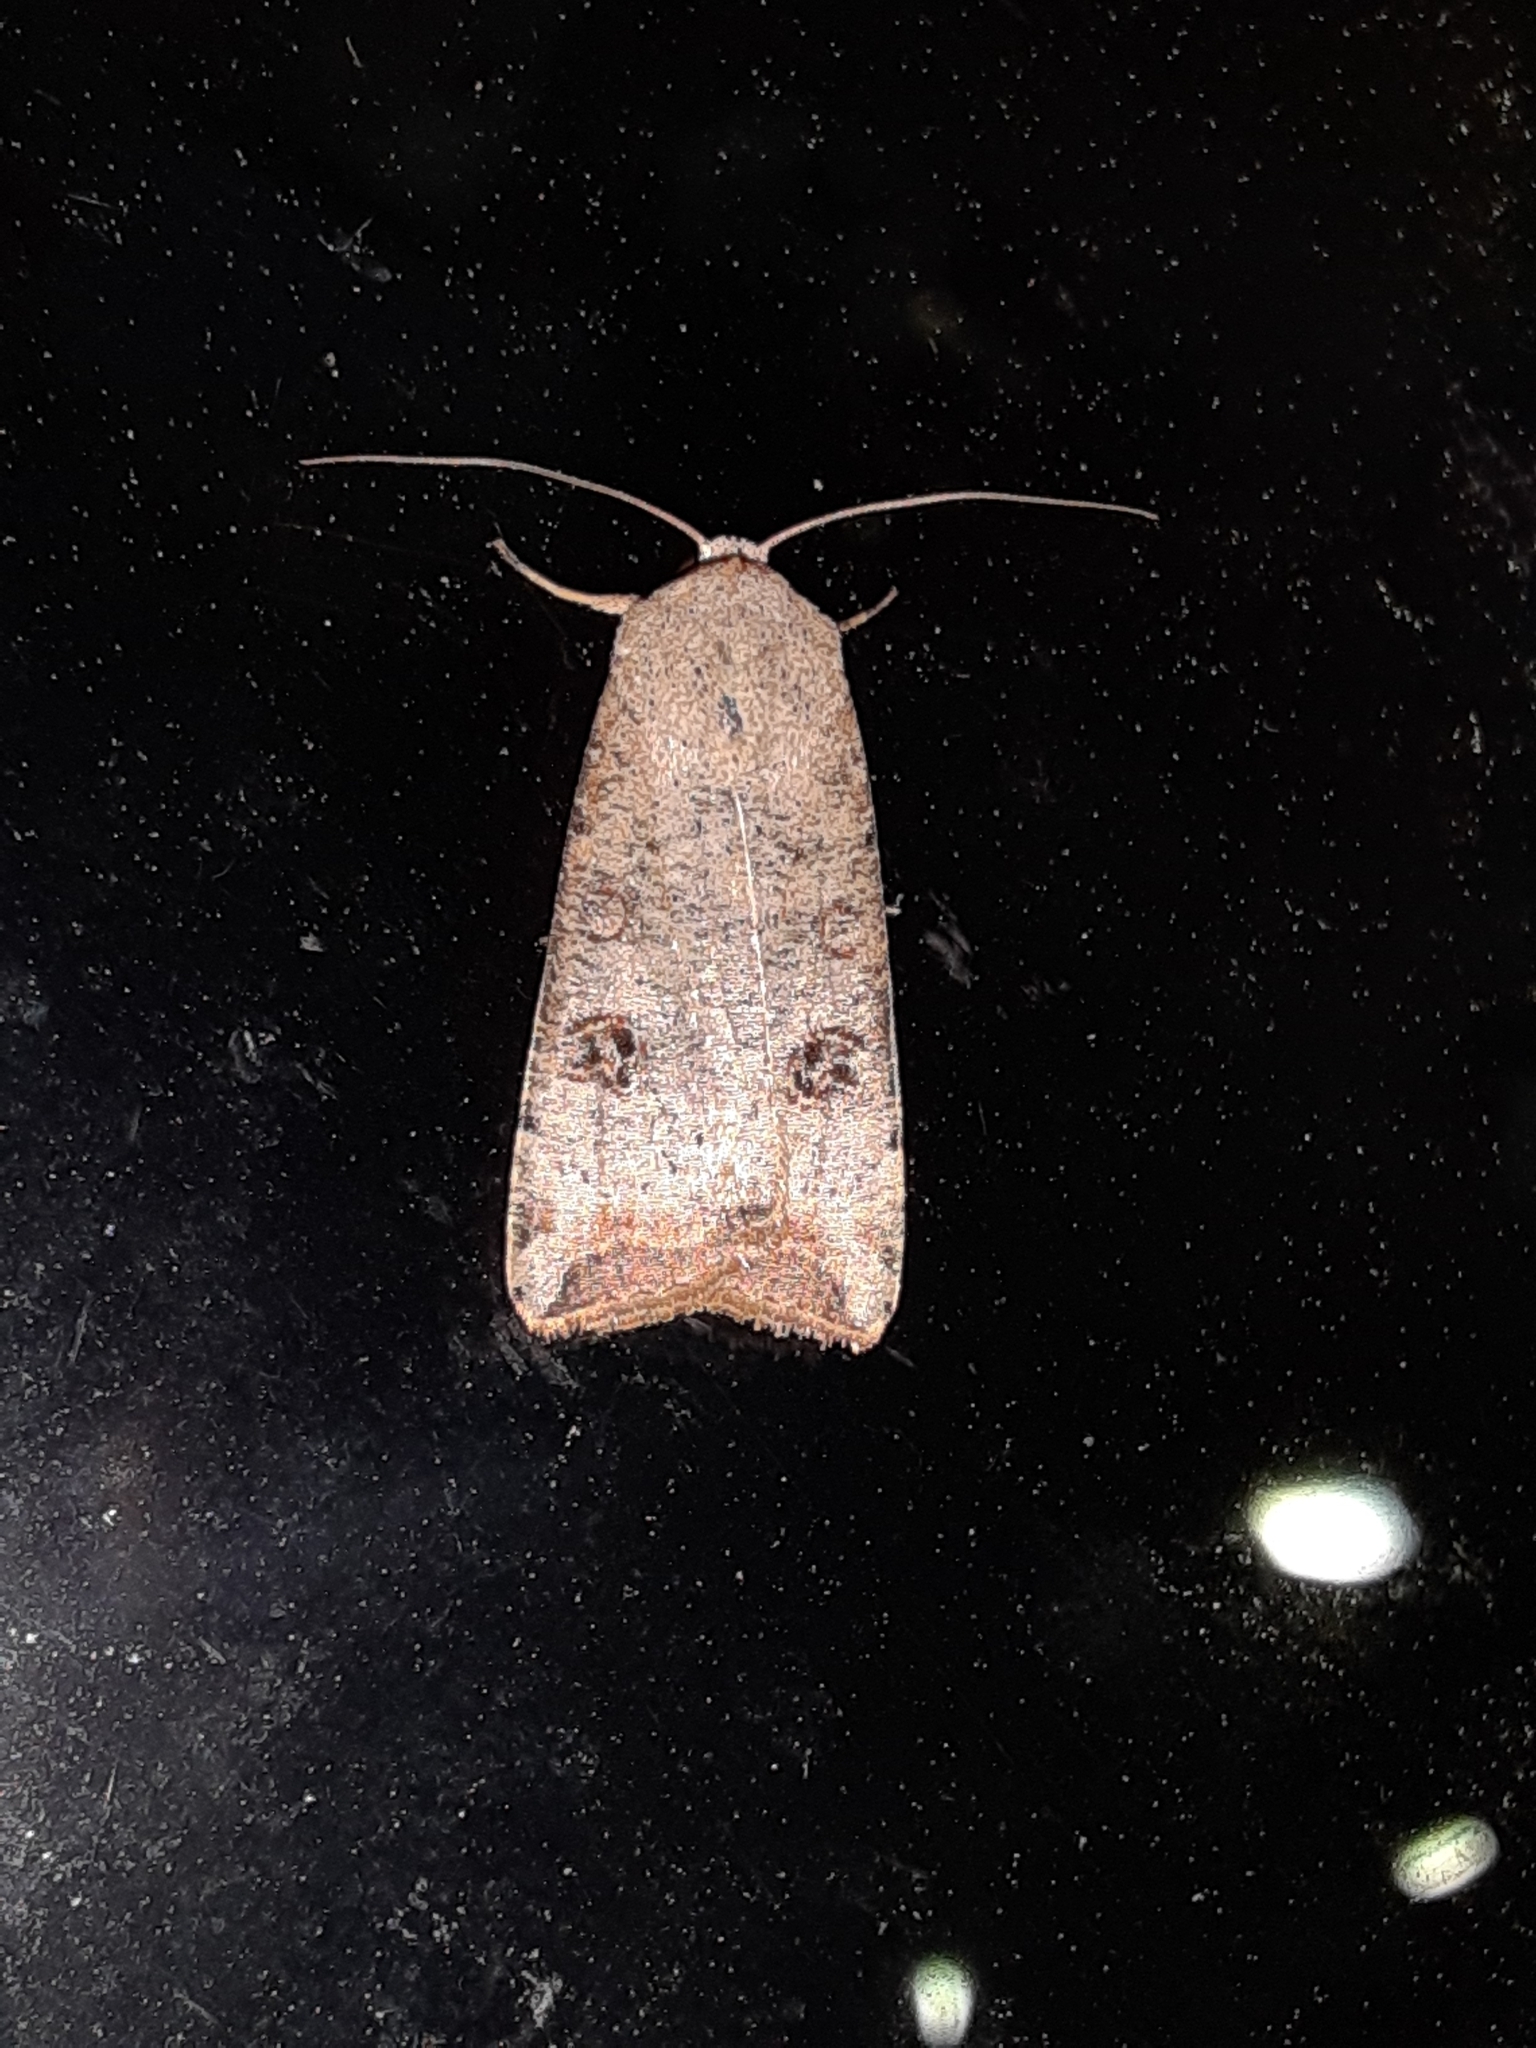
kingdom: Animalia
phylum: Arthropoda
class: Insecta
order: Lepidoptera
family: Noctuidae
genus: Anicla
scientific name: Anicla infecta
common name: Green cutworm
